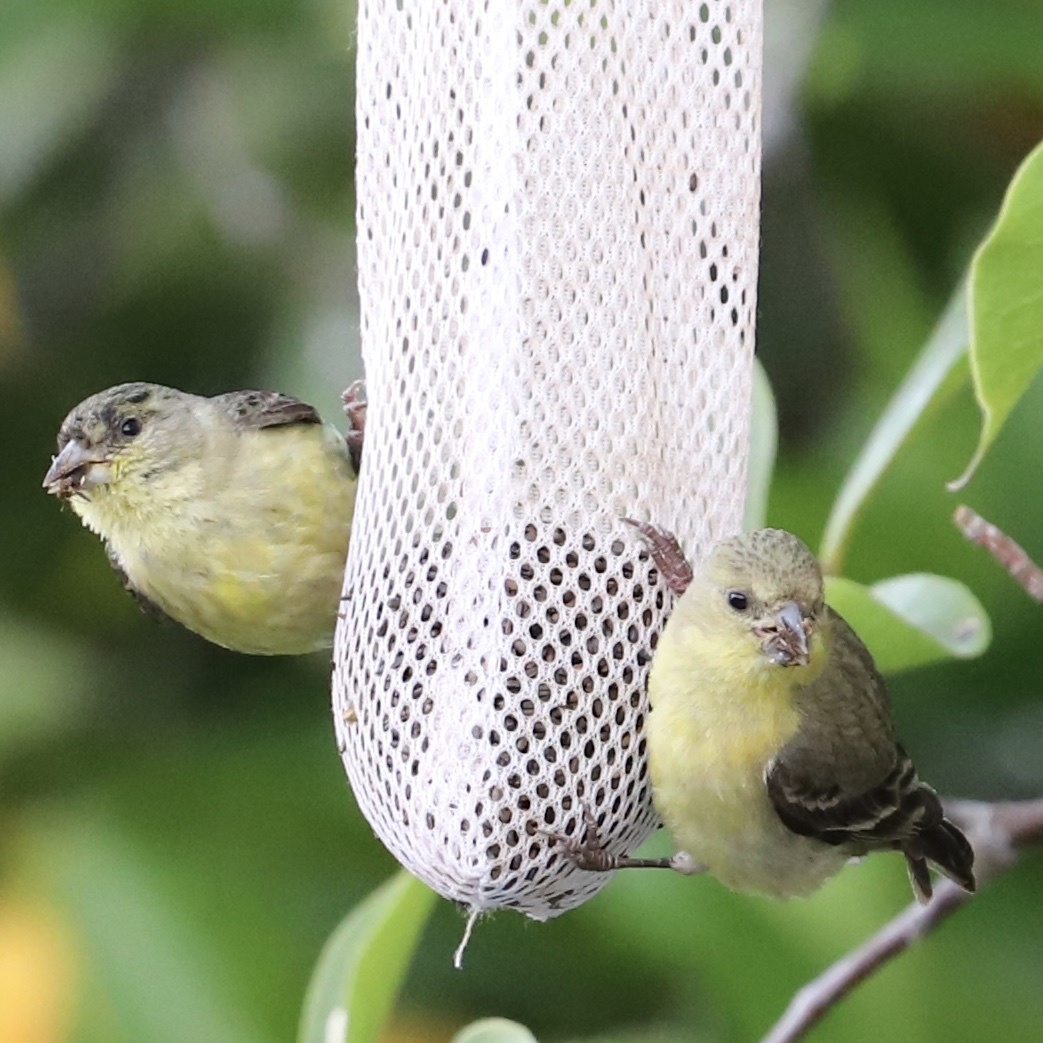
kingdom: Animalia
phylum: Chordata
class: Aves
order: Passeriformes
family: Fringillidae
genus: Spinus
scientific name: Spinus psaltria
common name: Lesser goldfinch
